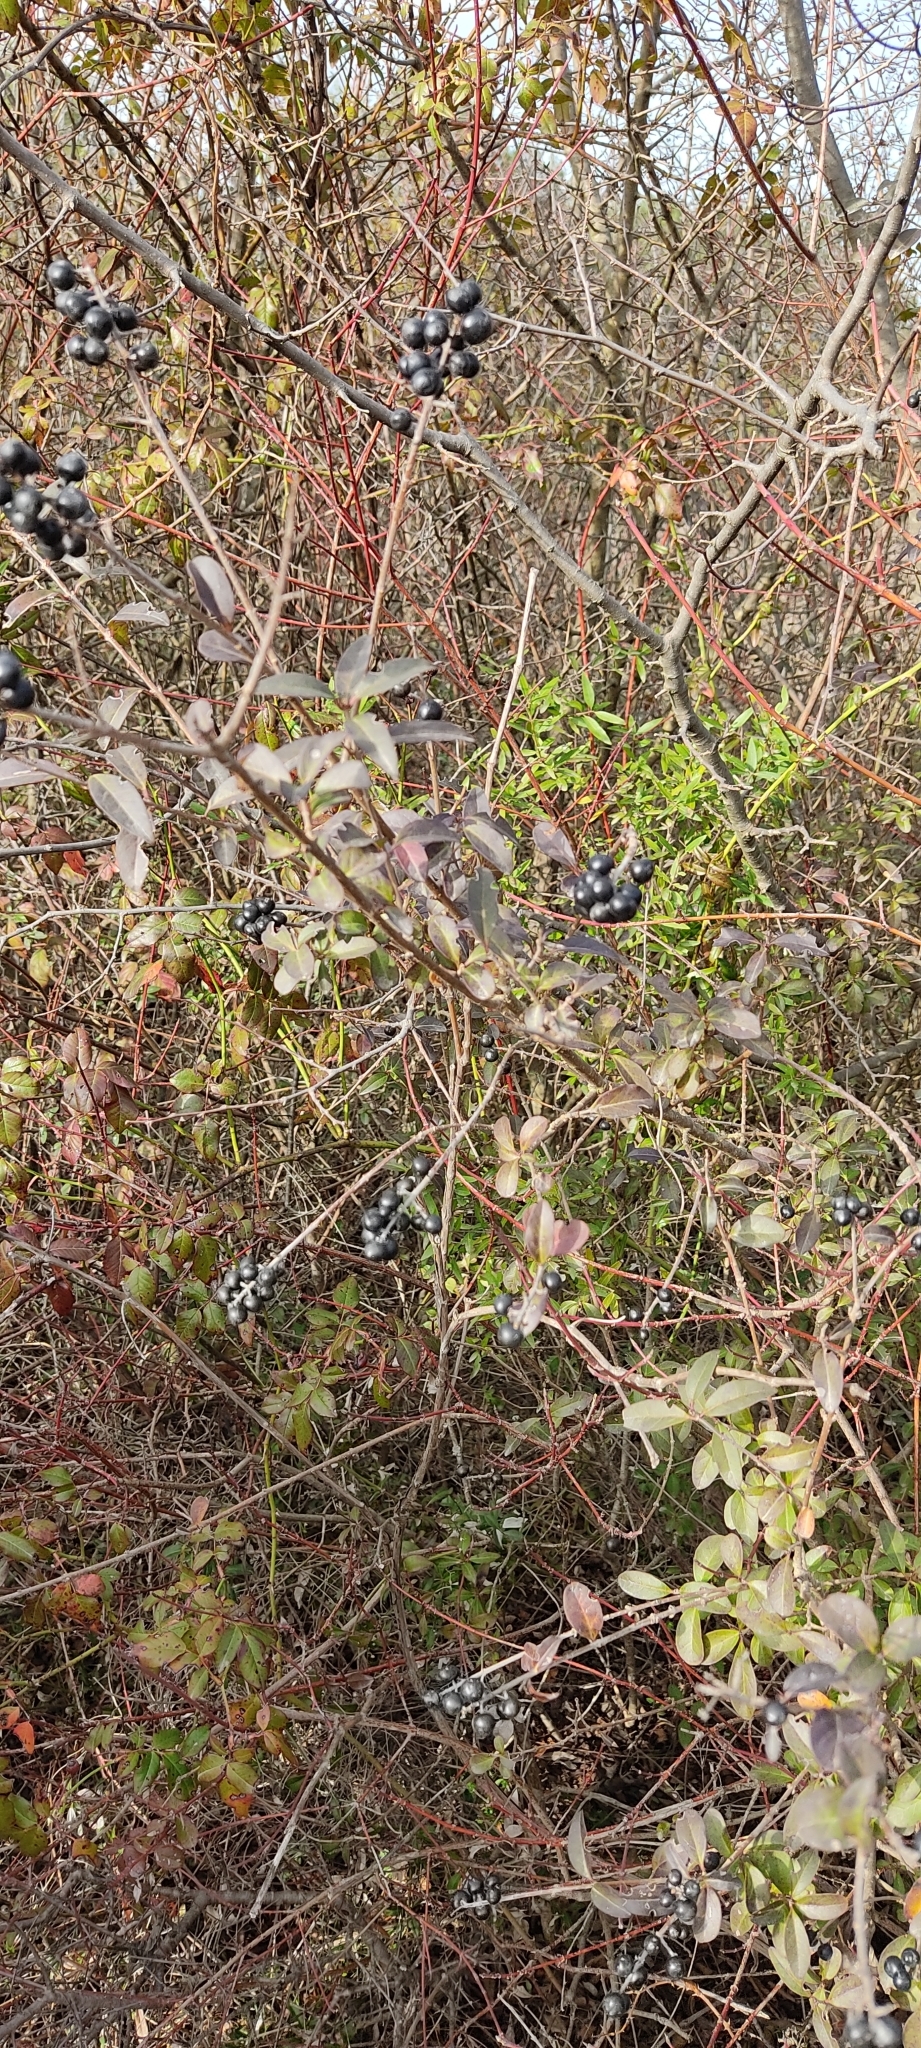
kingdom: Plantae
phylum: Tracheophyta
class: Magnoliopsida
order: Lamiales
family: Oleaceae
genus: Ligustrum
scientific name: Ligustrum vulgare
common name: Wild privet
